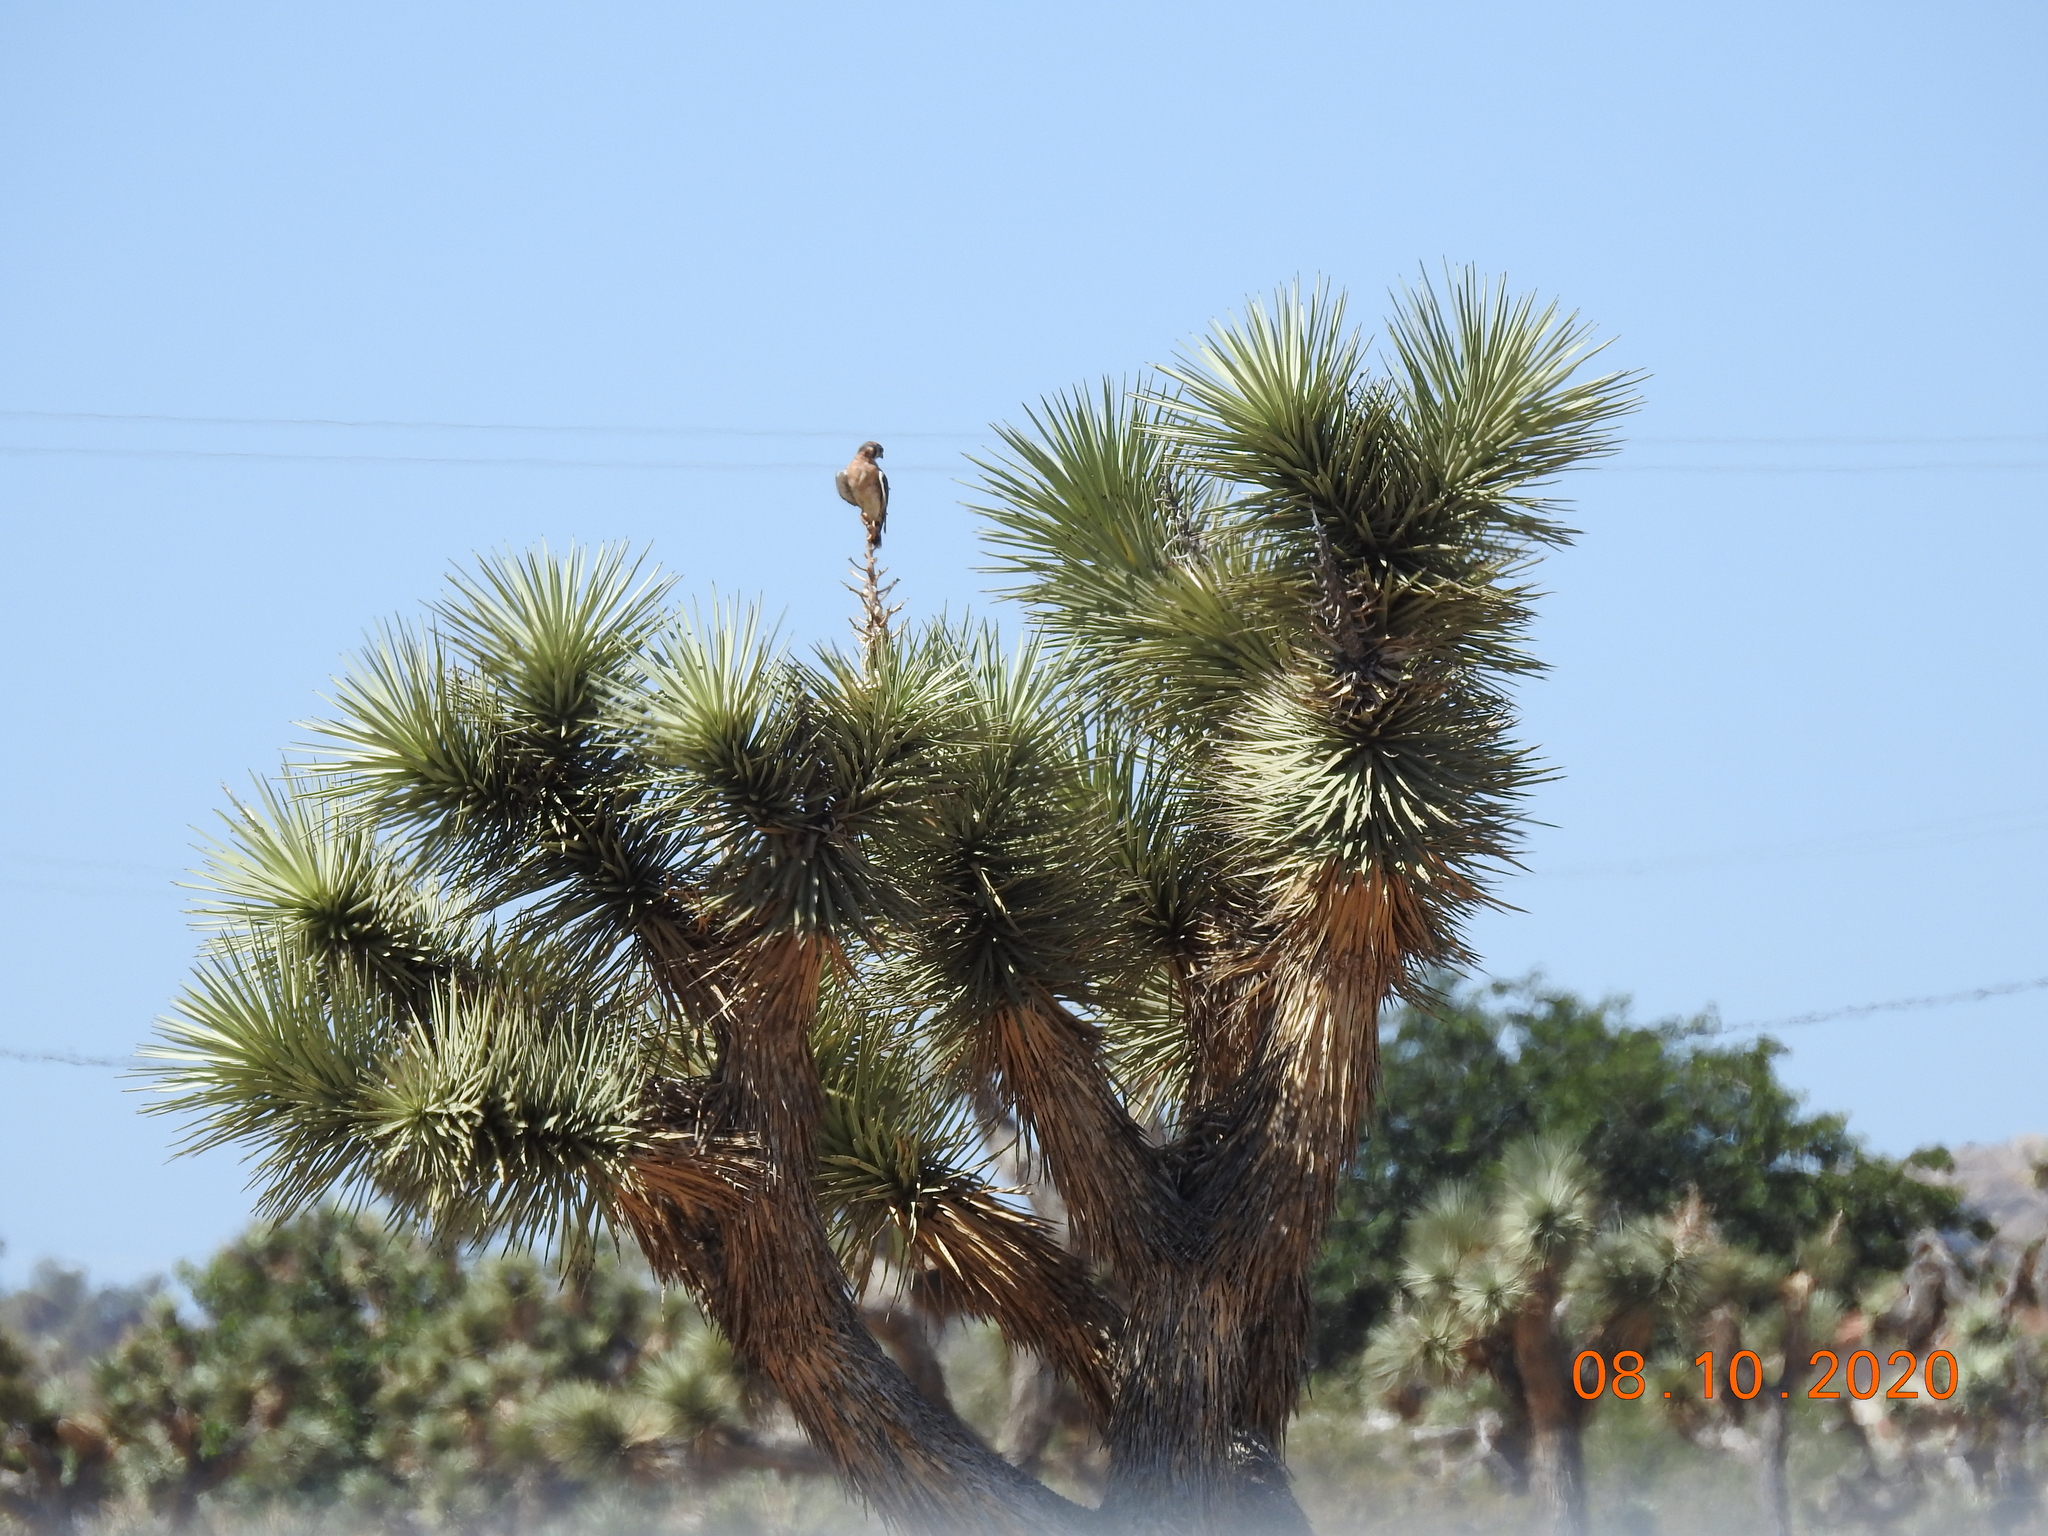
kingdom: Animalia
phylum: Chordata
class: Aves
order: Falconiformes
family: Falconidae
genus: Falco
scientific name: Falco sparverius
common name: American kestrel
